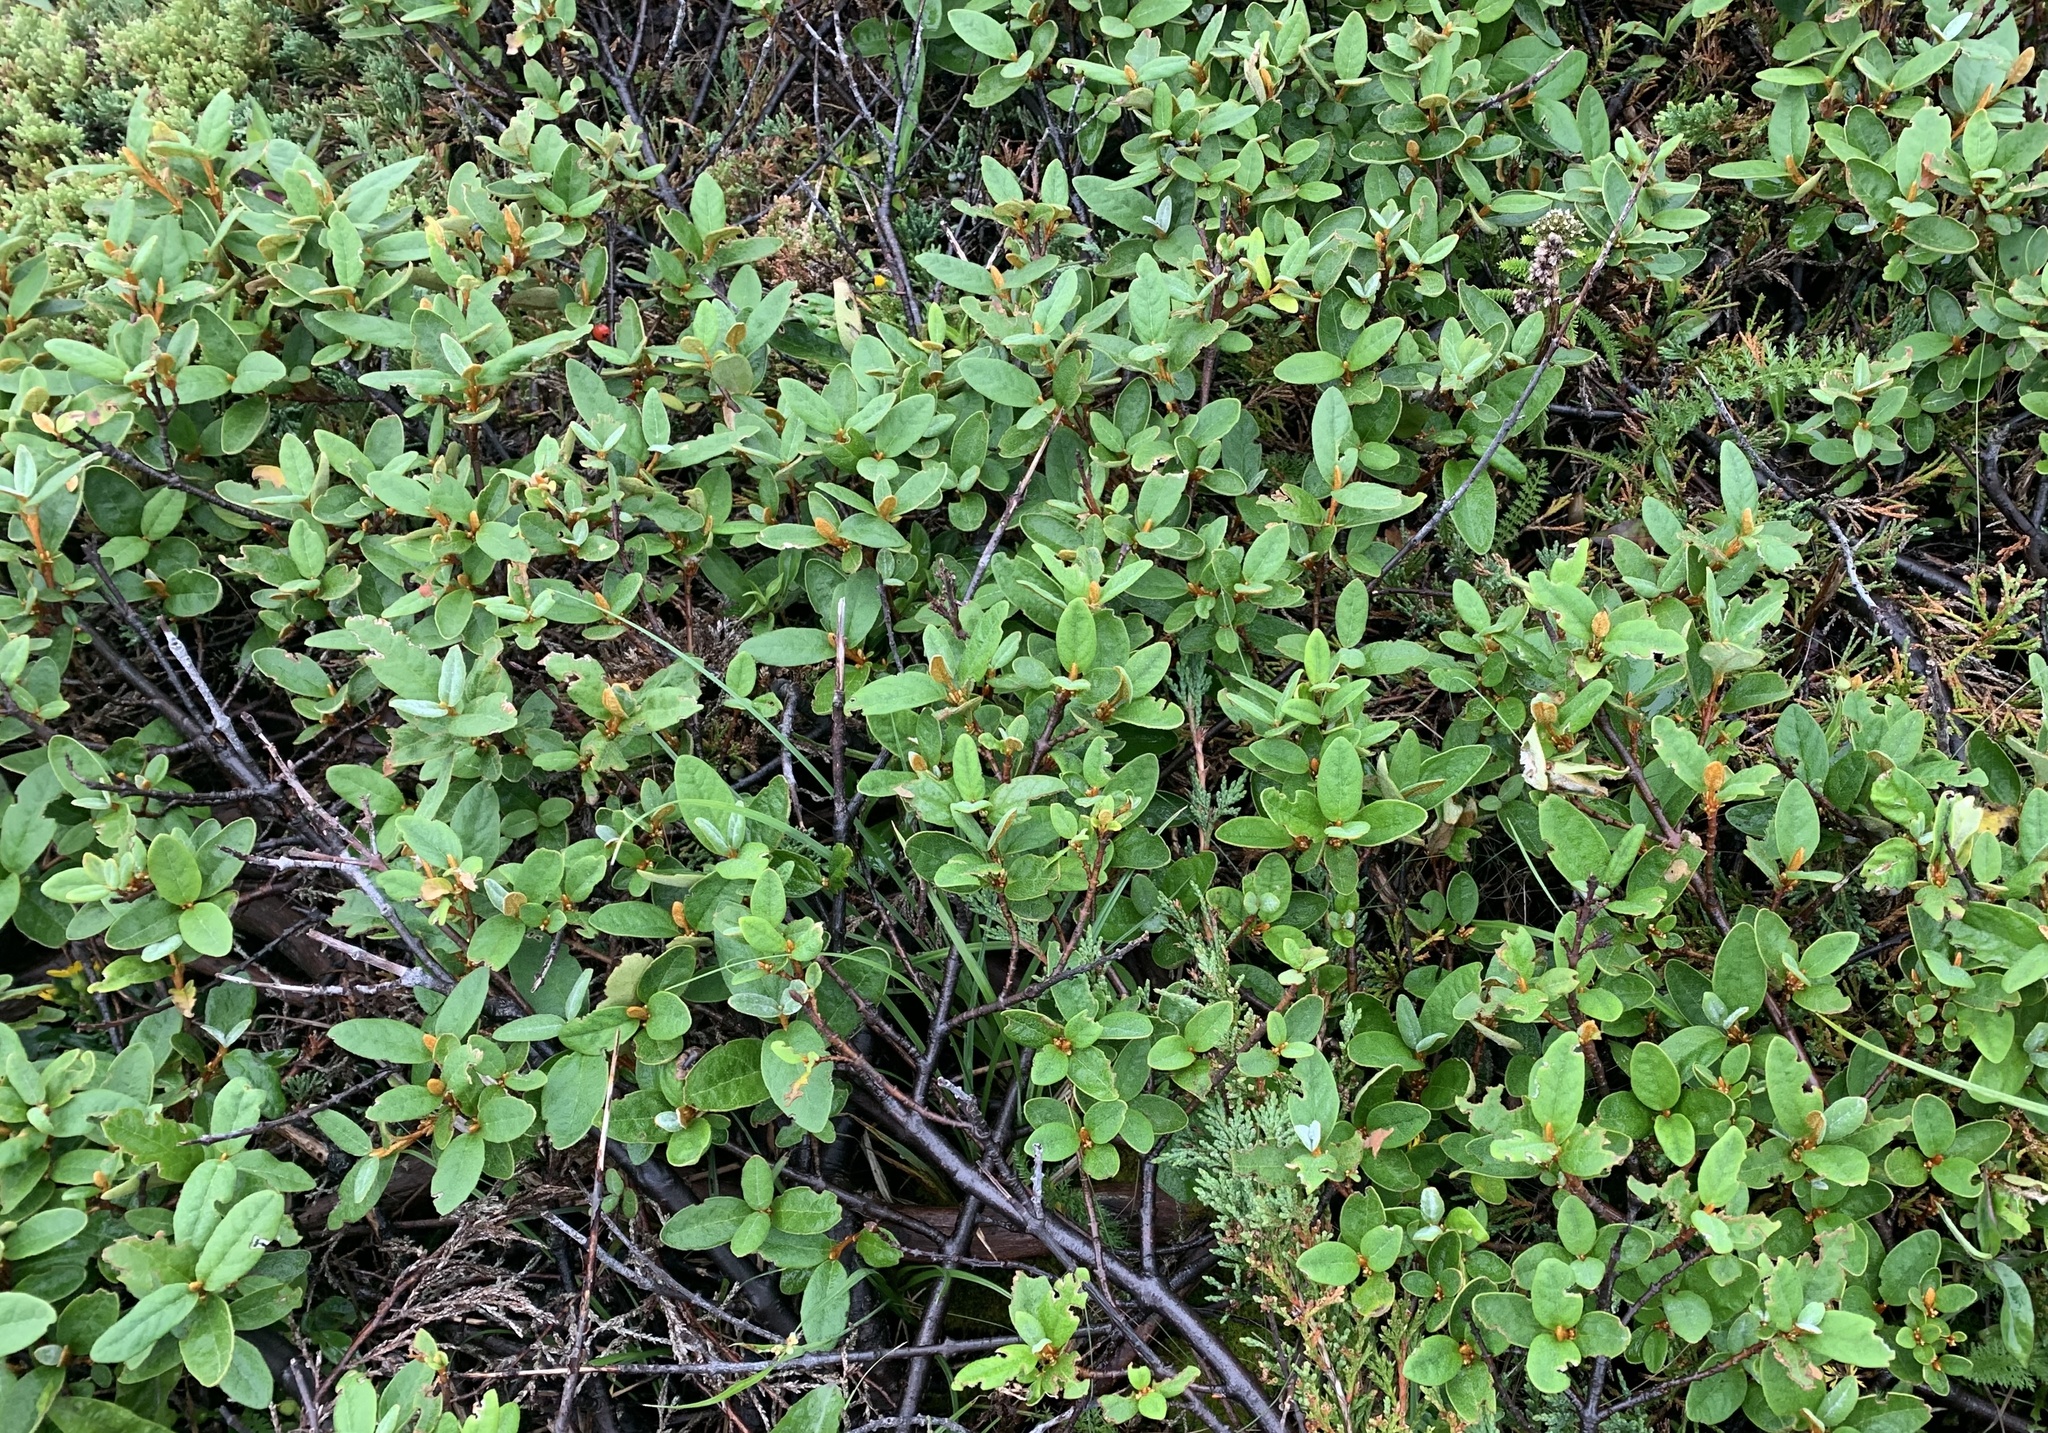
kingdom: Plantae
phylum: Tracheophyta
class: Magnoliopsida
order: Rosales
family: Elaeagnaceae
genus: Shepherdia
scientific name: Shepherdia canadensis
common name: Soapberry
